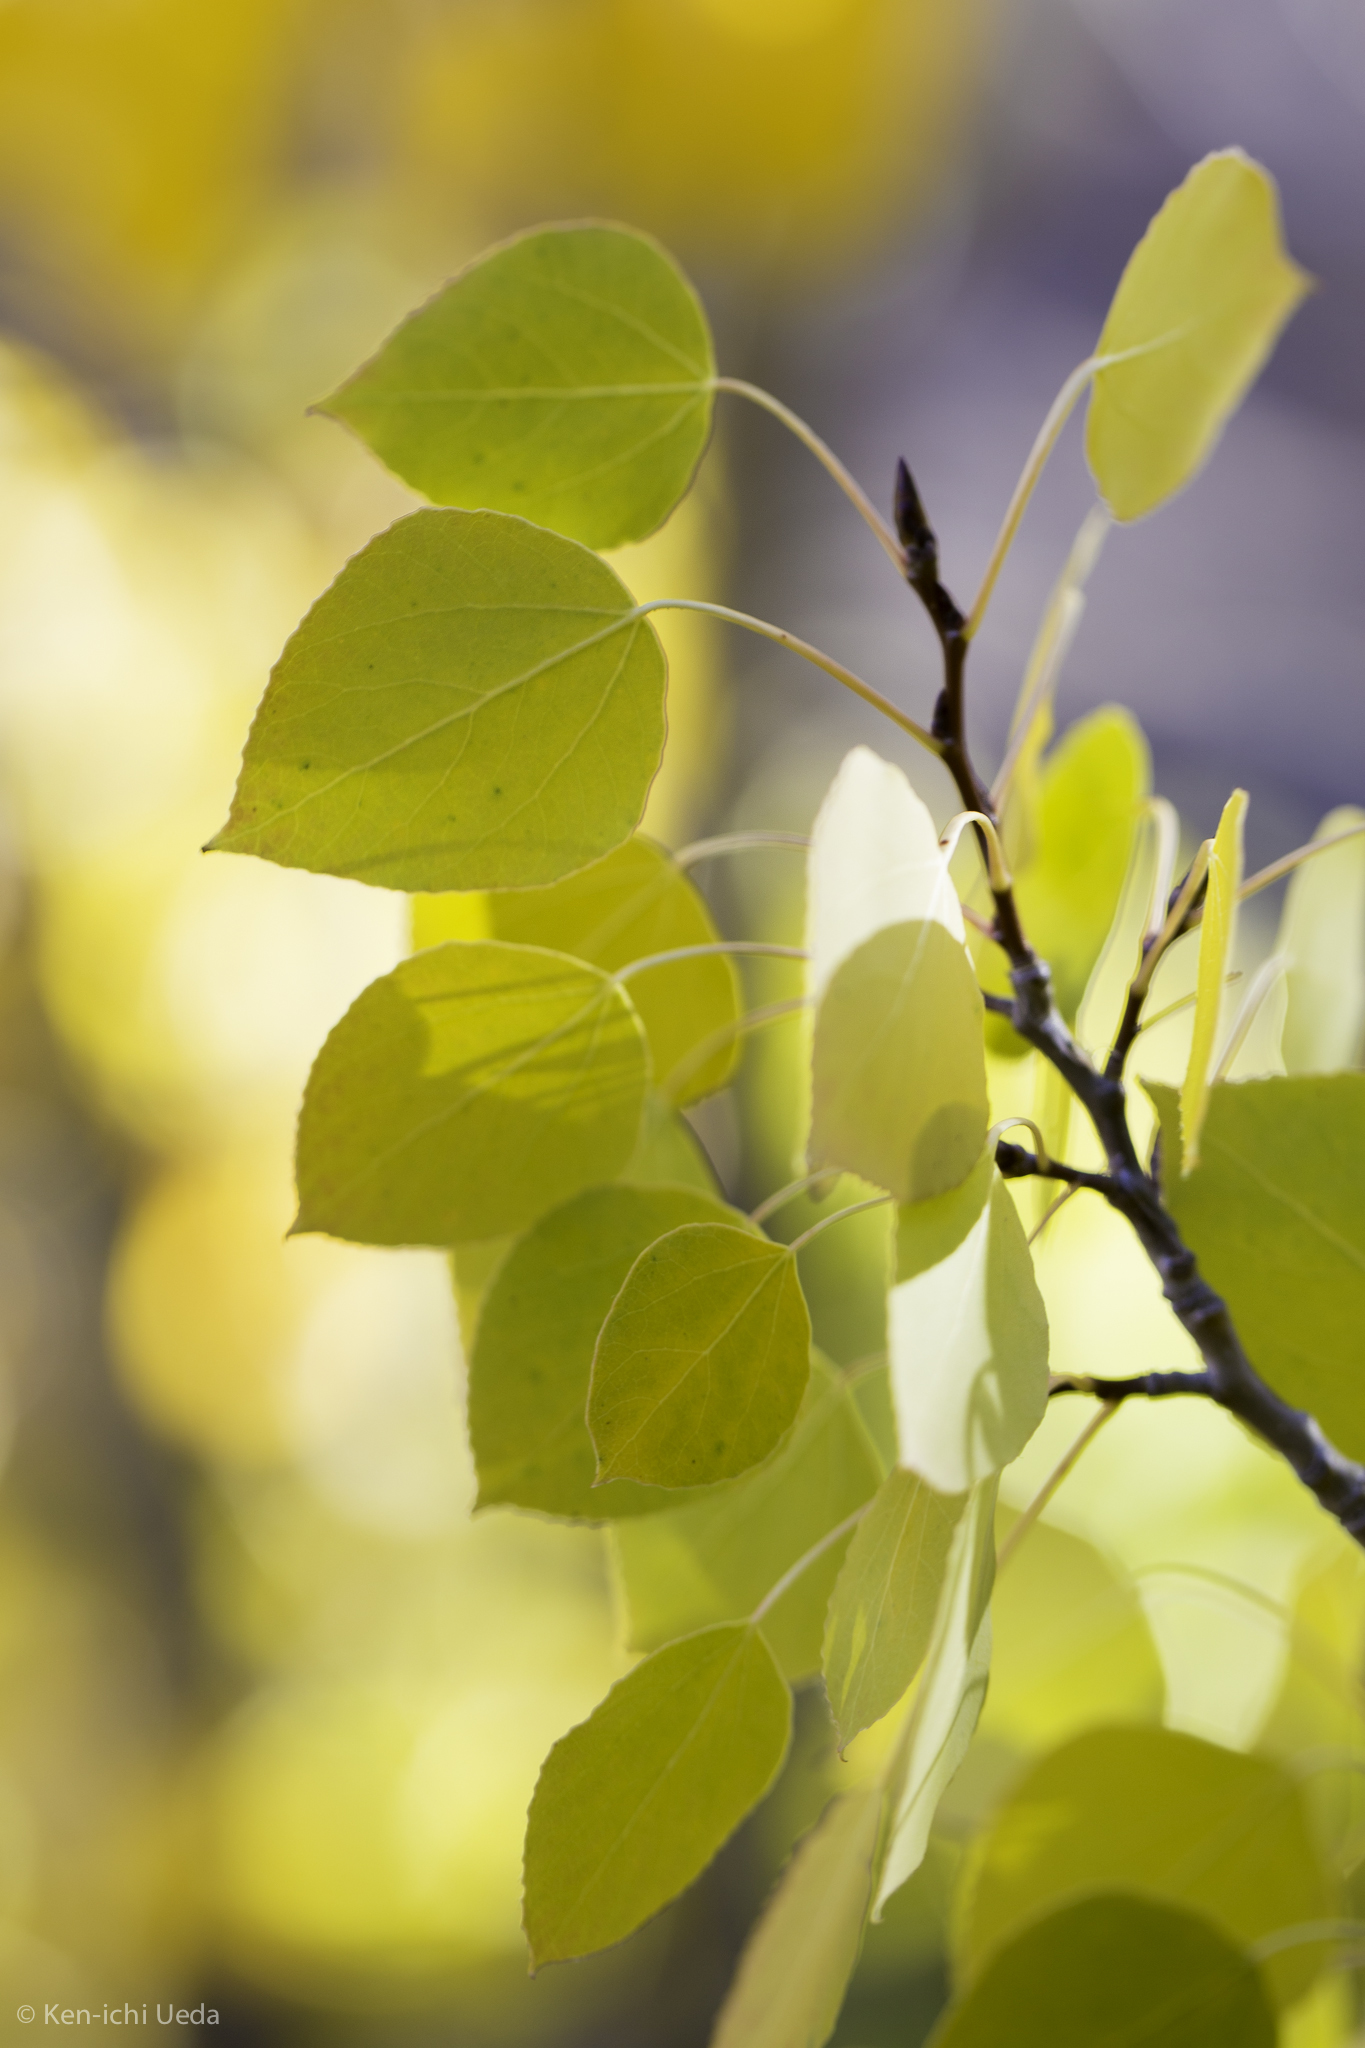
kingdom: Plantae
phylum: Tracheophyta
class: Magnoliopsida
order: Malpighiales
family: Salicaceae
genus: Populus
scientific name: Populus tremuloides
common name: Quaking aspen
